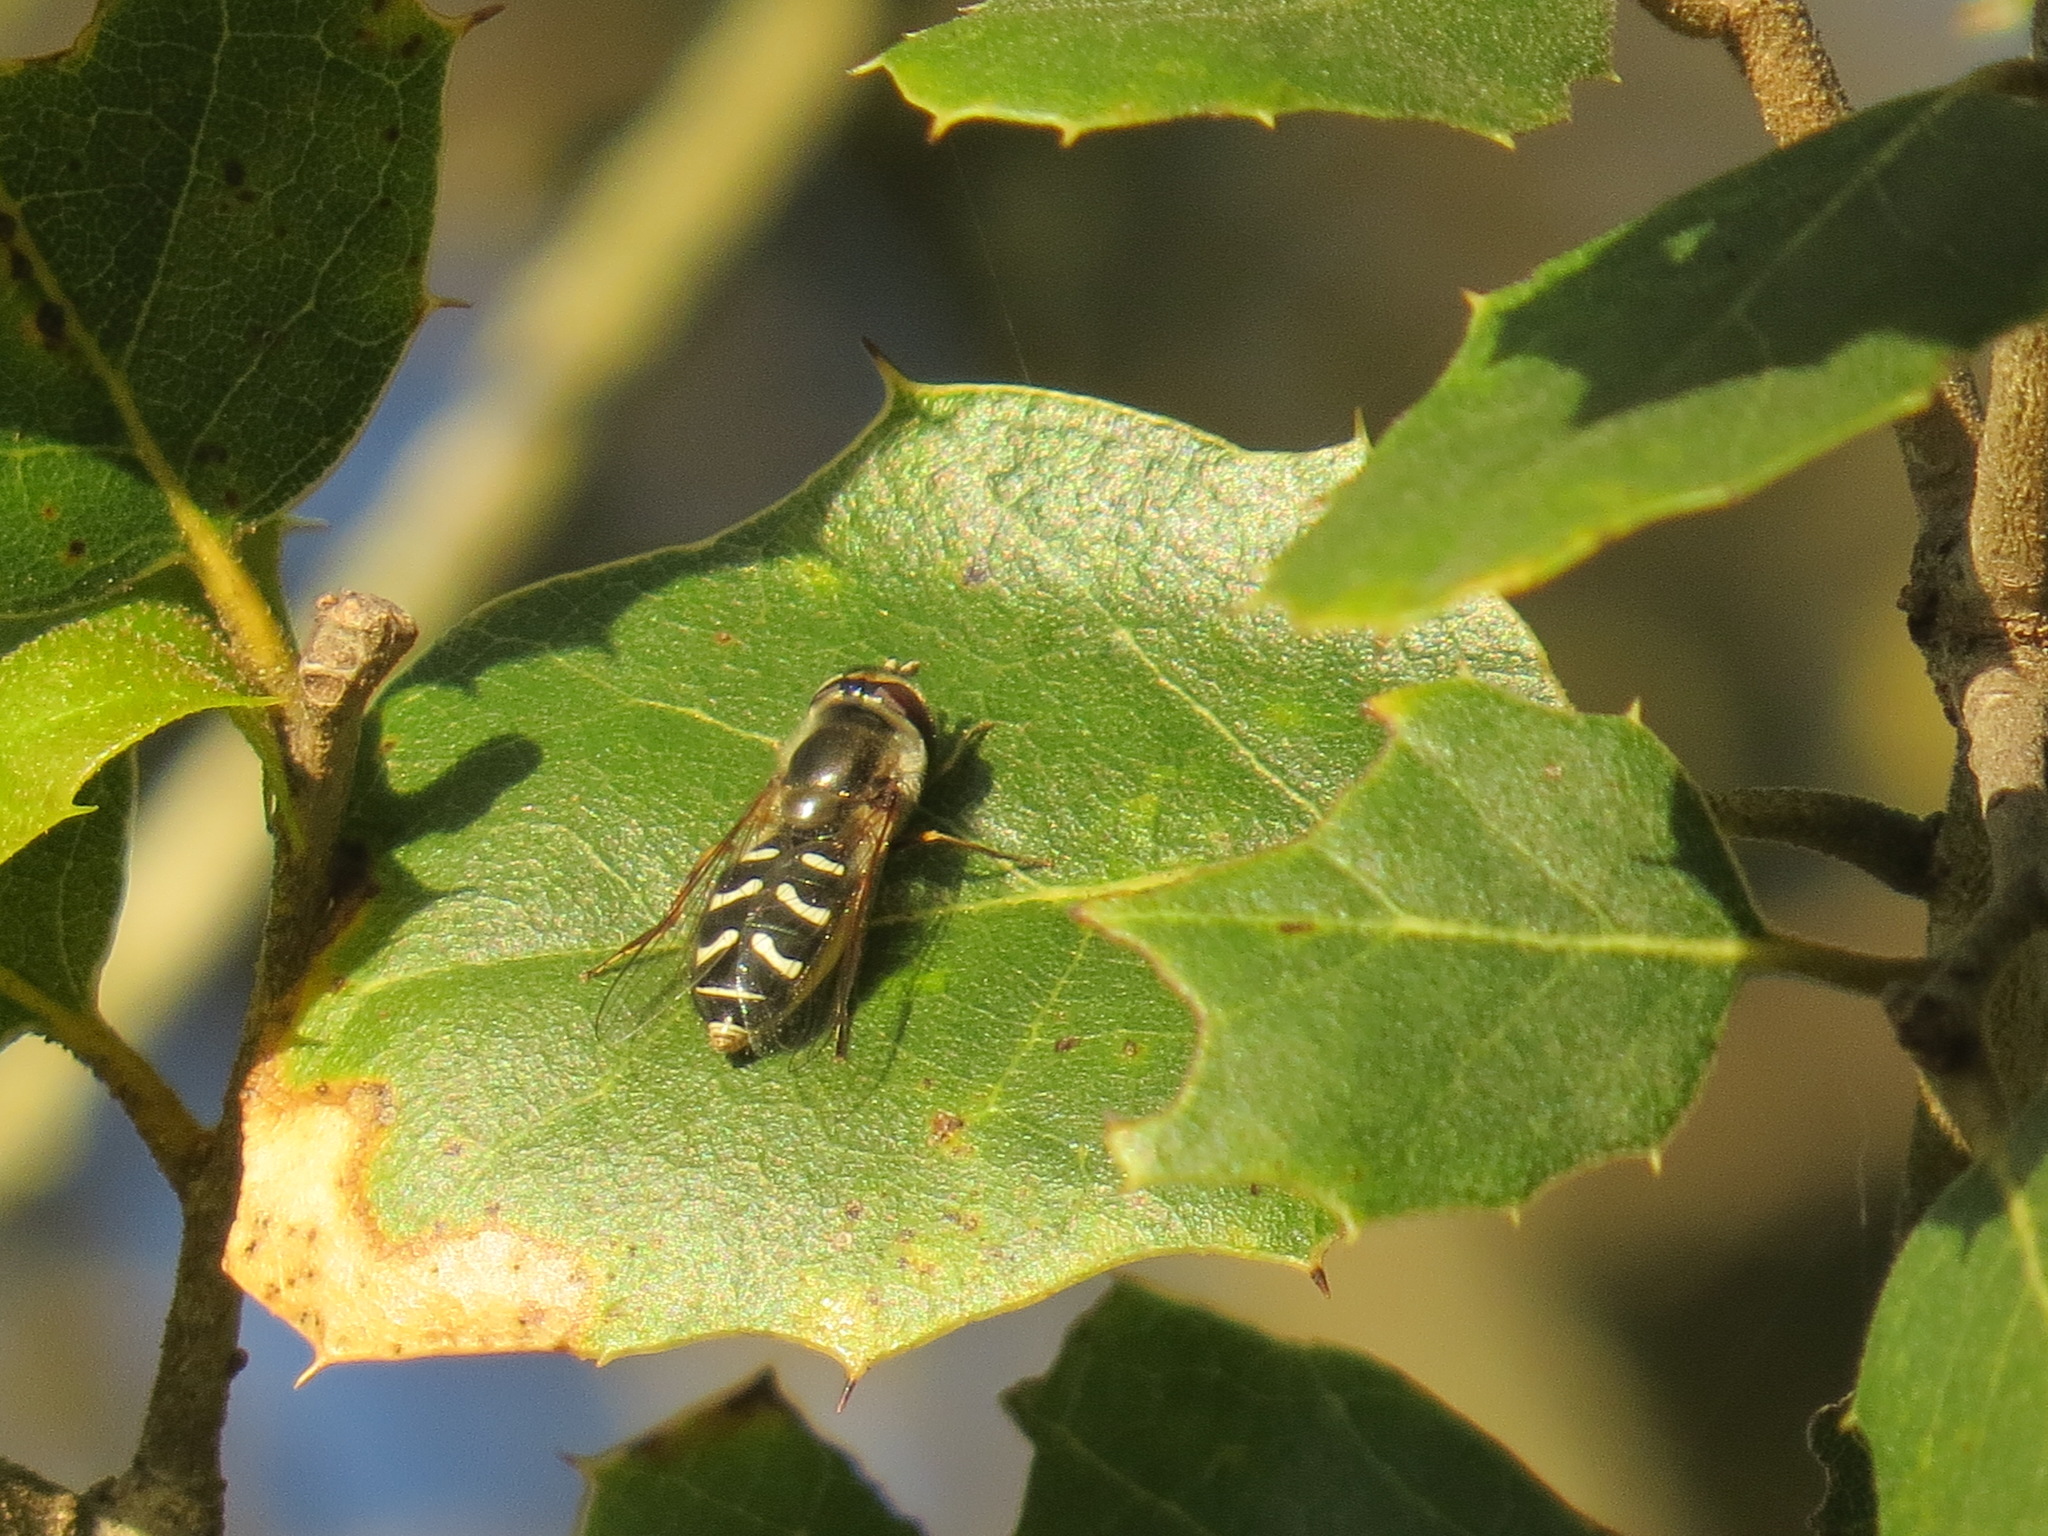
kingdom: Animalia
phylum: Arthropoda
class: Insecta
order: Diptera
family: Syrphidae
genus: Scaeva
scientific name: Scaeva affinis
